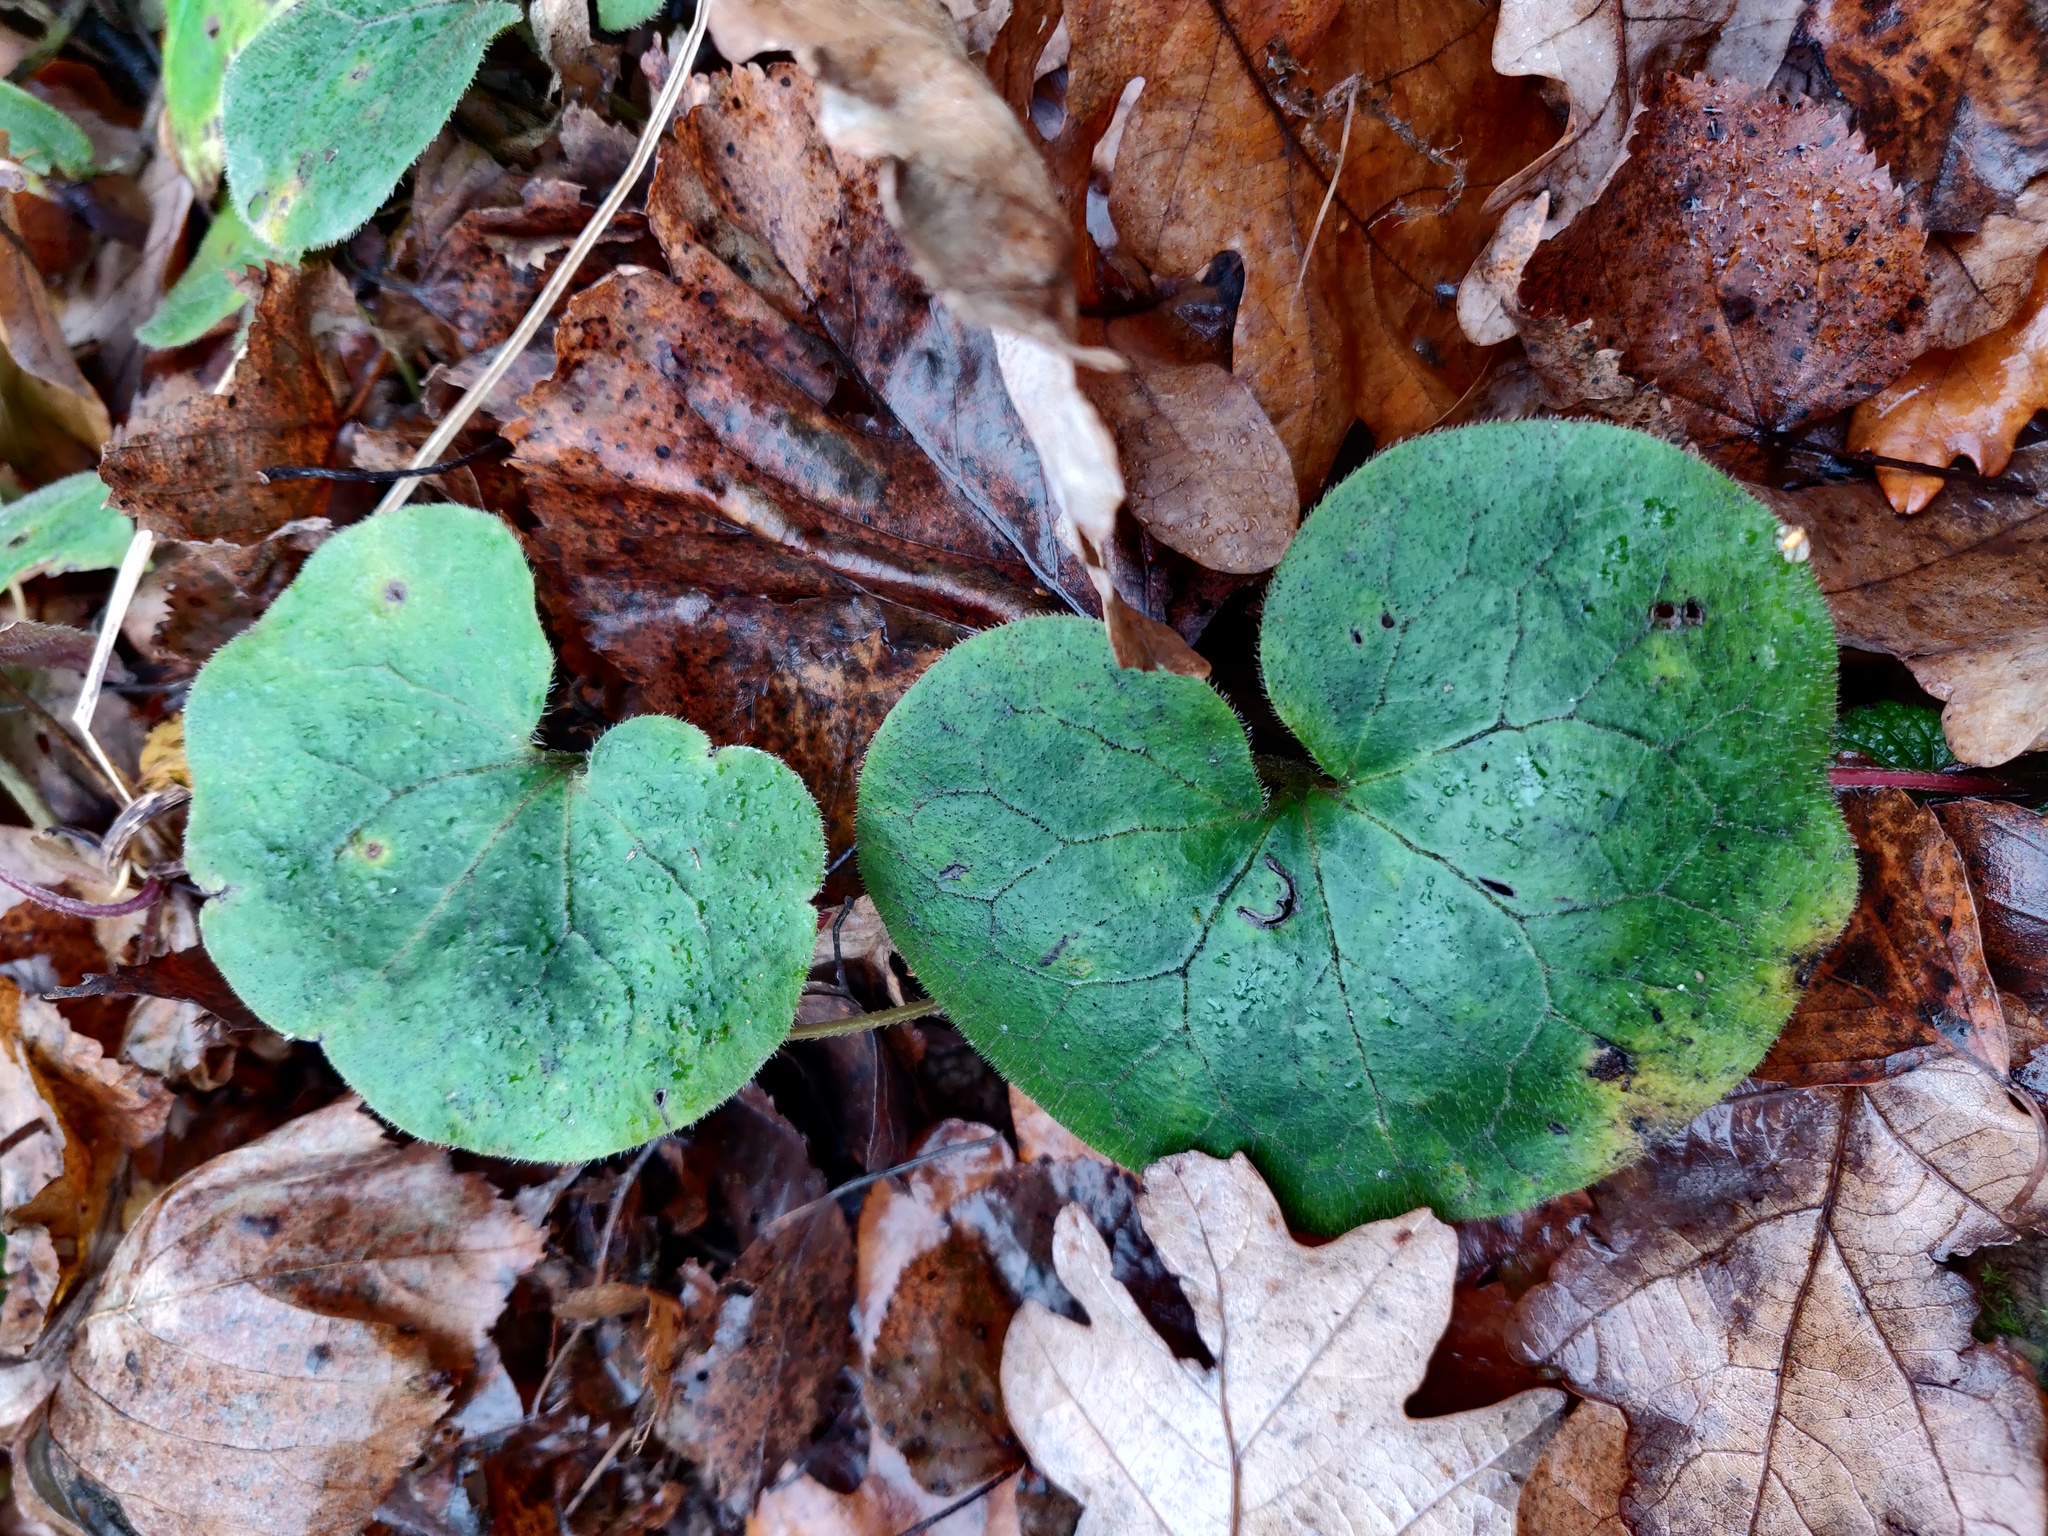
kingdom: Plantae
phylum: Tracheophyta
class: Magnoliopsida
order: Piperales
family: Aristolochiaceae
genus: Asarum
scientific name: Asarum europaeum
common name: Asarabacca
